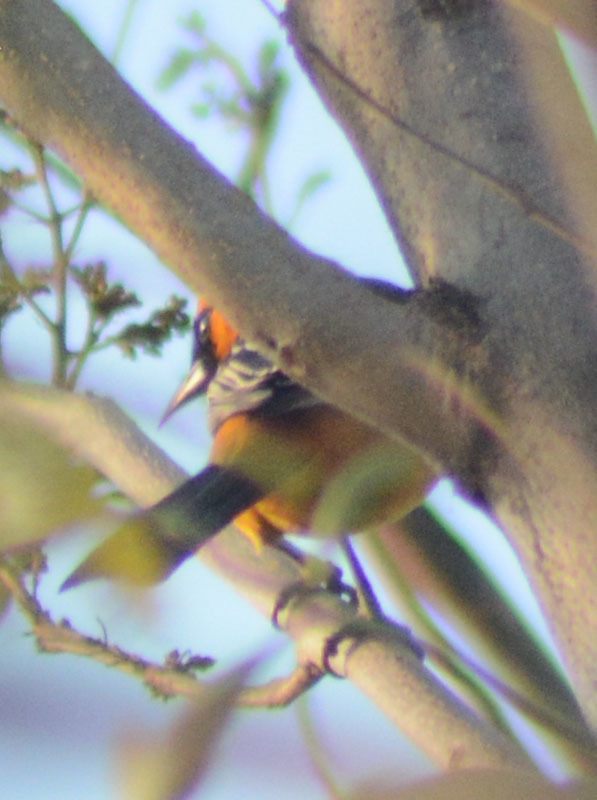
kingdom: Animalia
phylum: Chordata
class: Aves
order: Passeriformes
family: Icteridae
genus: Icterus
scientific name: Icterus cucullatus
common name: Hooded oriole
